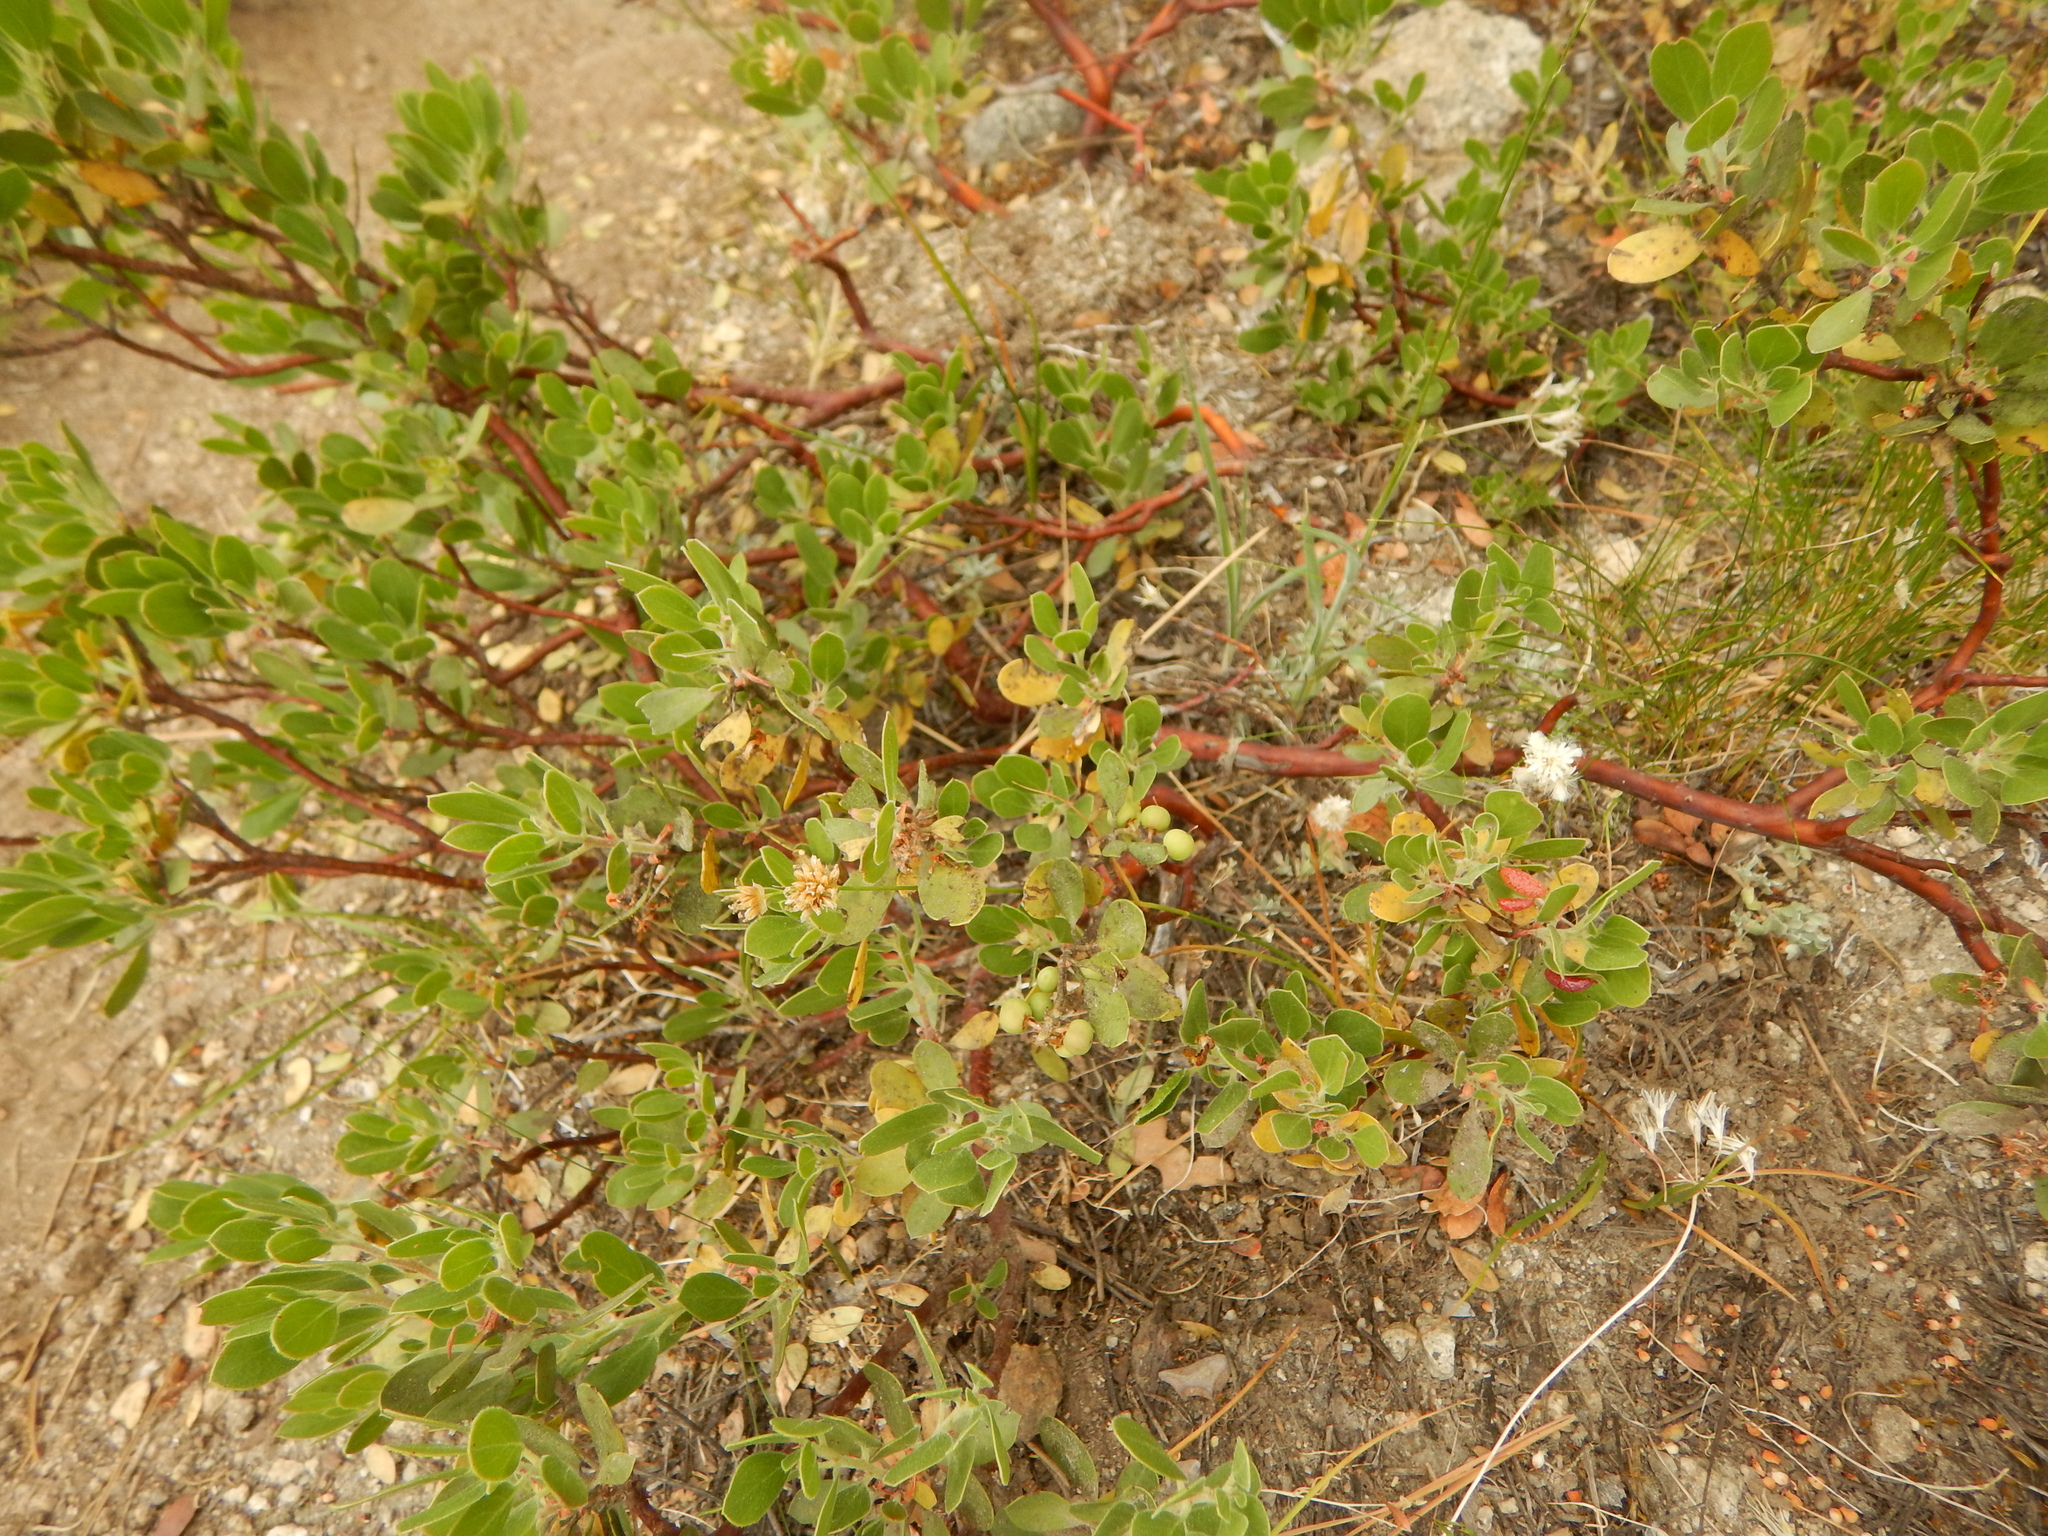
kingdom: Plantae
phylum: Tracheophyta
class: Magnoliopsida
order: Ericales
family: Ericaceae
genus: Arctostaphylos
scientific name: Arctostaphylos nevadensis
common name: Pinemat manzanita
